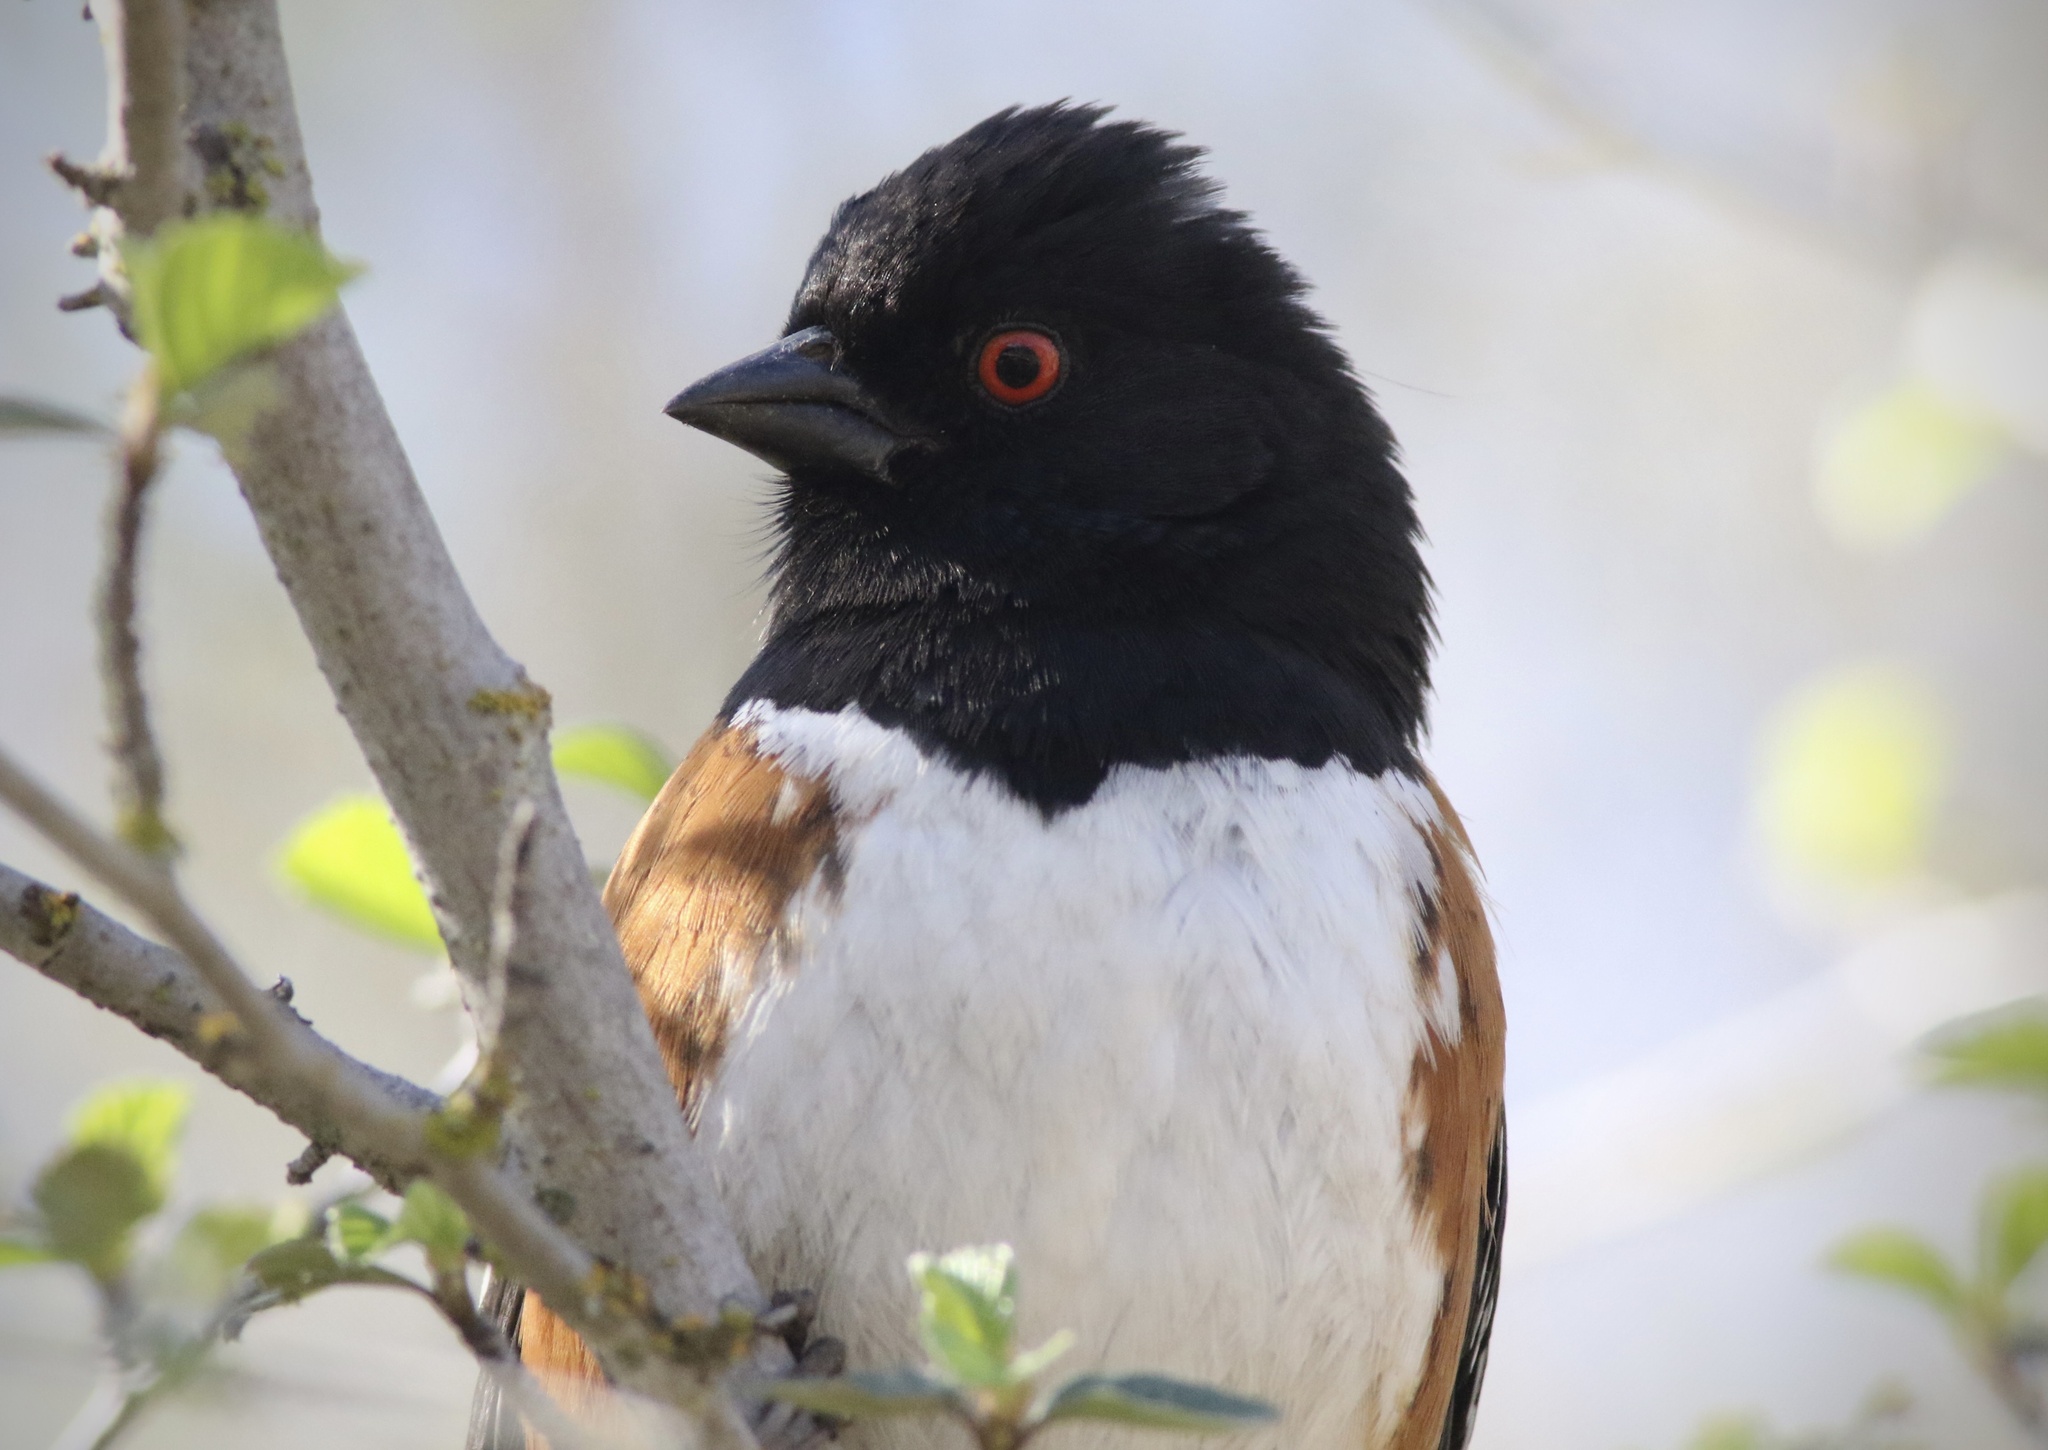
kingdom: Animalia
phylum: Chordata
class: Aves
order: Passeriformes
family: Passerellidae
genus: Pipilo
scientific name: Pipilo maculatus
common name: Spotted towhee
